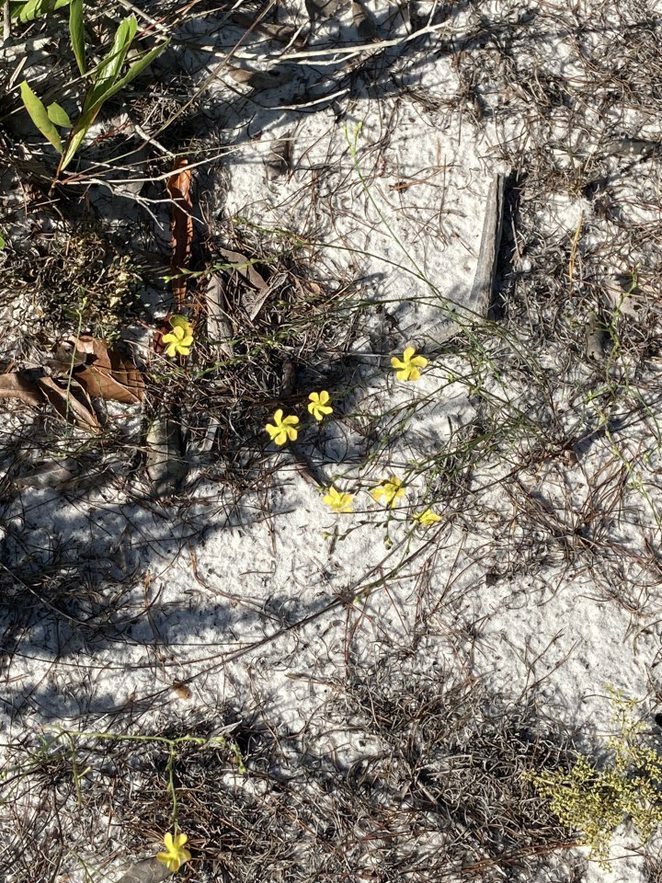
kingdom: Plantae
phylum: Tracheophyta
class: Magnoliopsida
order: Malpighiales
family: Hypericaceae
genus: Hypericum
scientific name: Hypericum cumulicola
